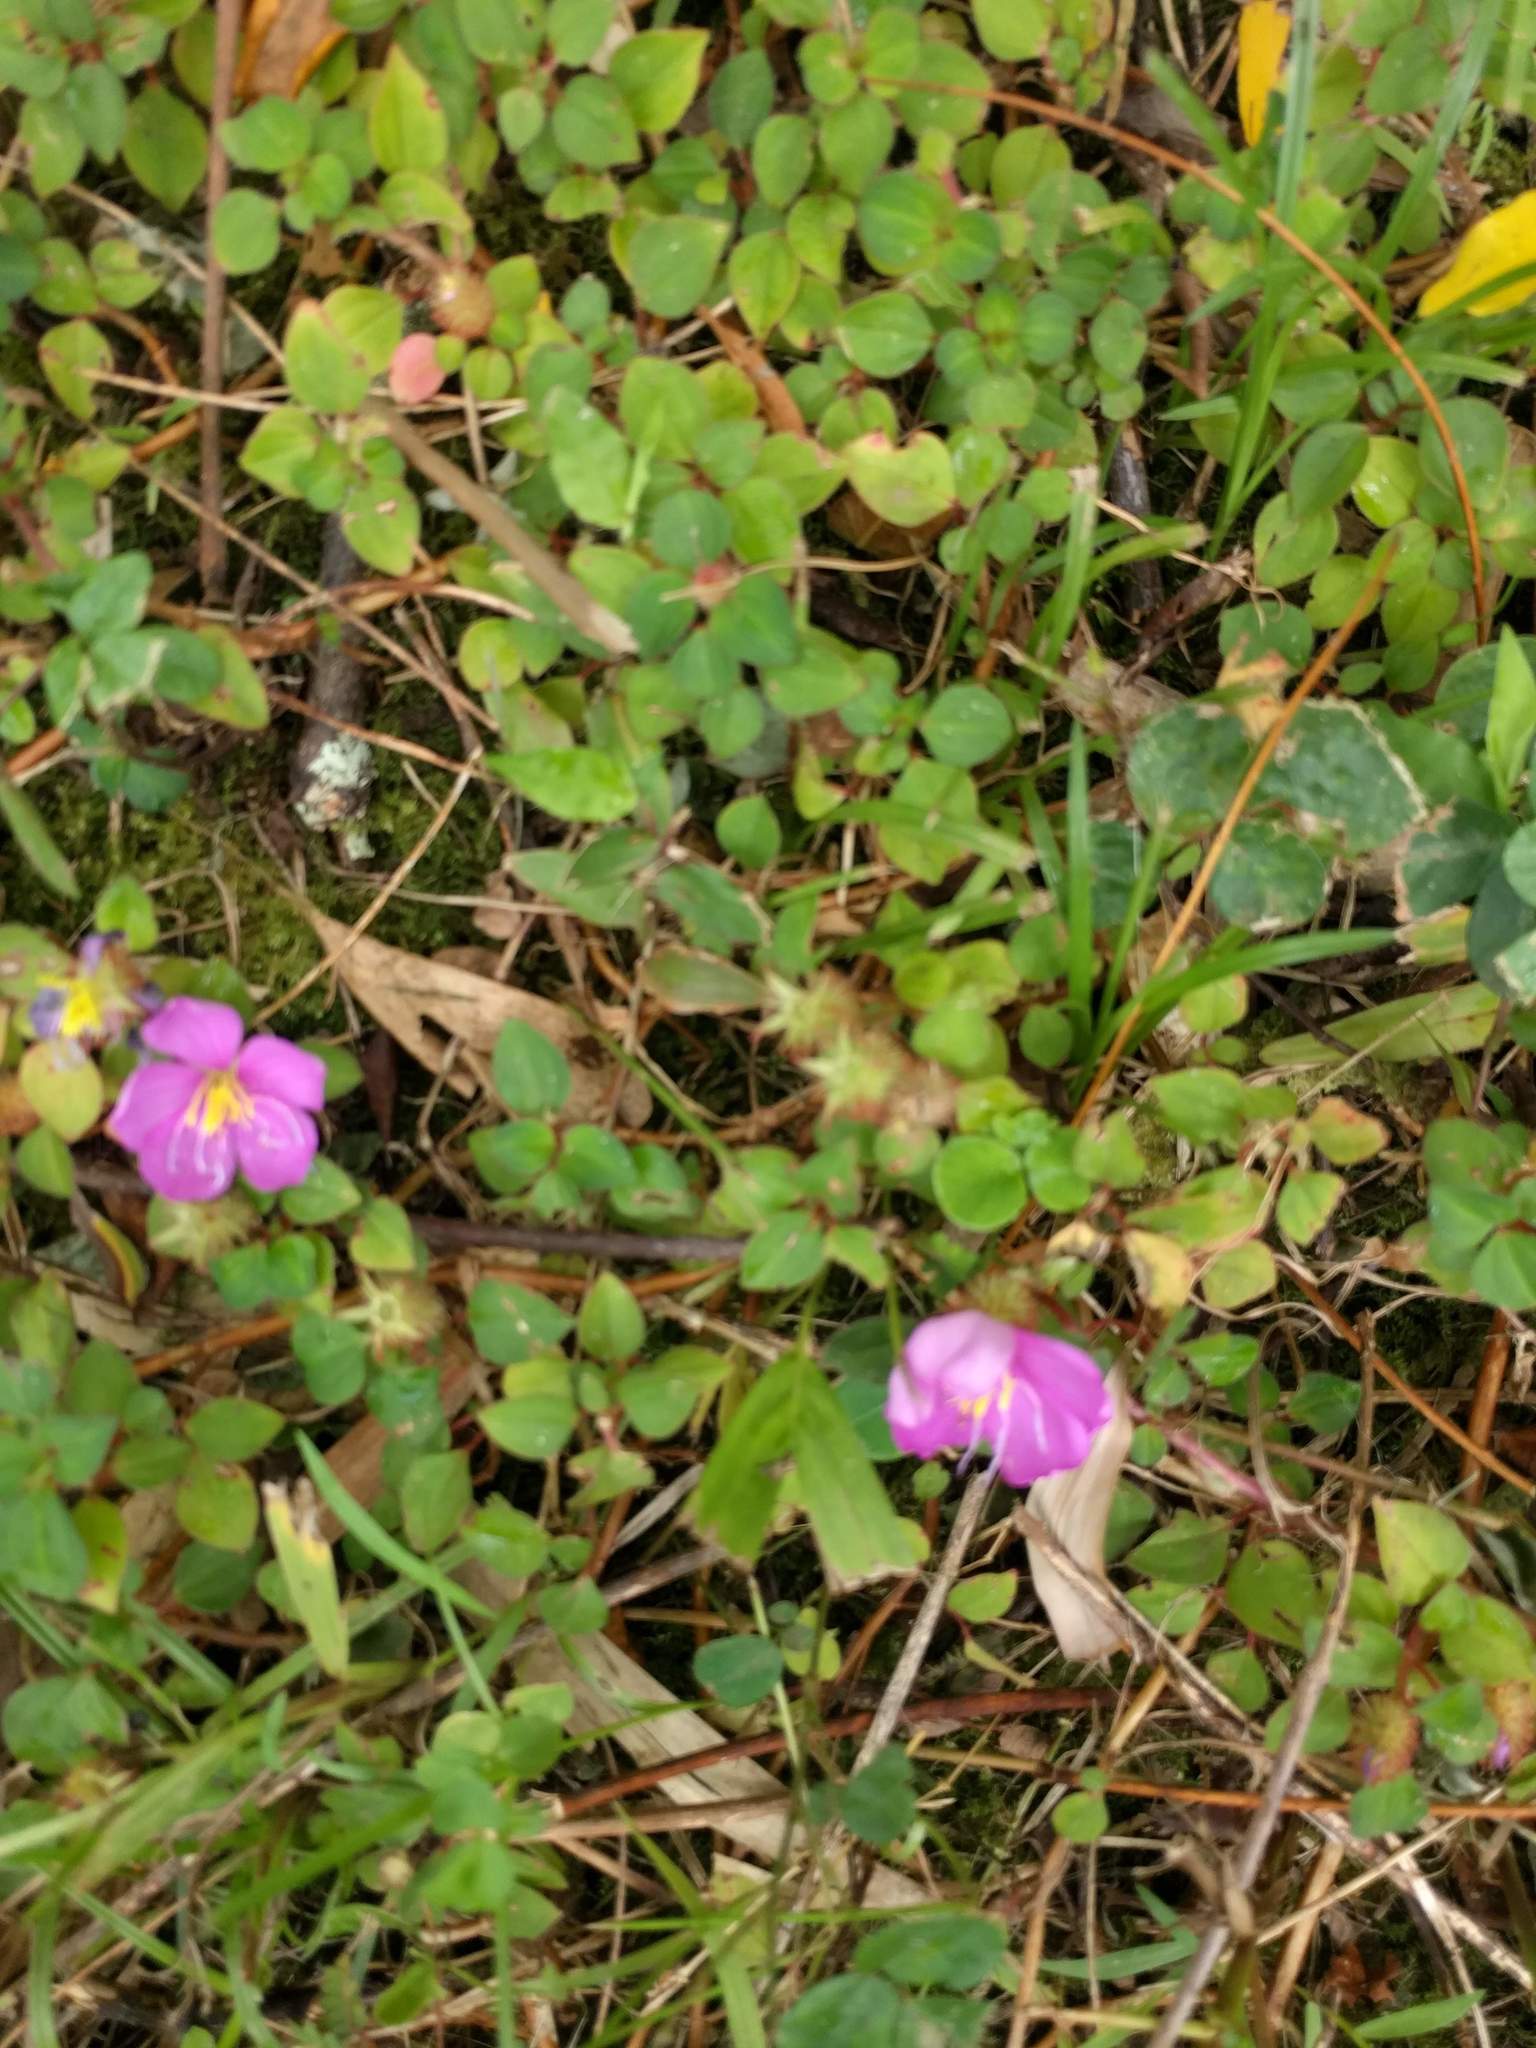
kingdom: Plantae
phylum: Tracheophyta
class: Magnoliopsida
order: Myrtales
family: Melastomataceae
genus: Heterotis
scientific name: Heterotis rotundifolia
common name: Pinklady
